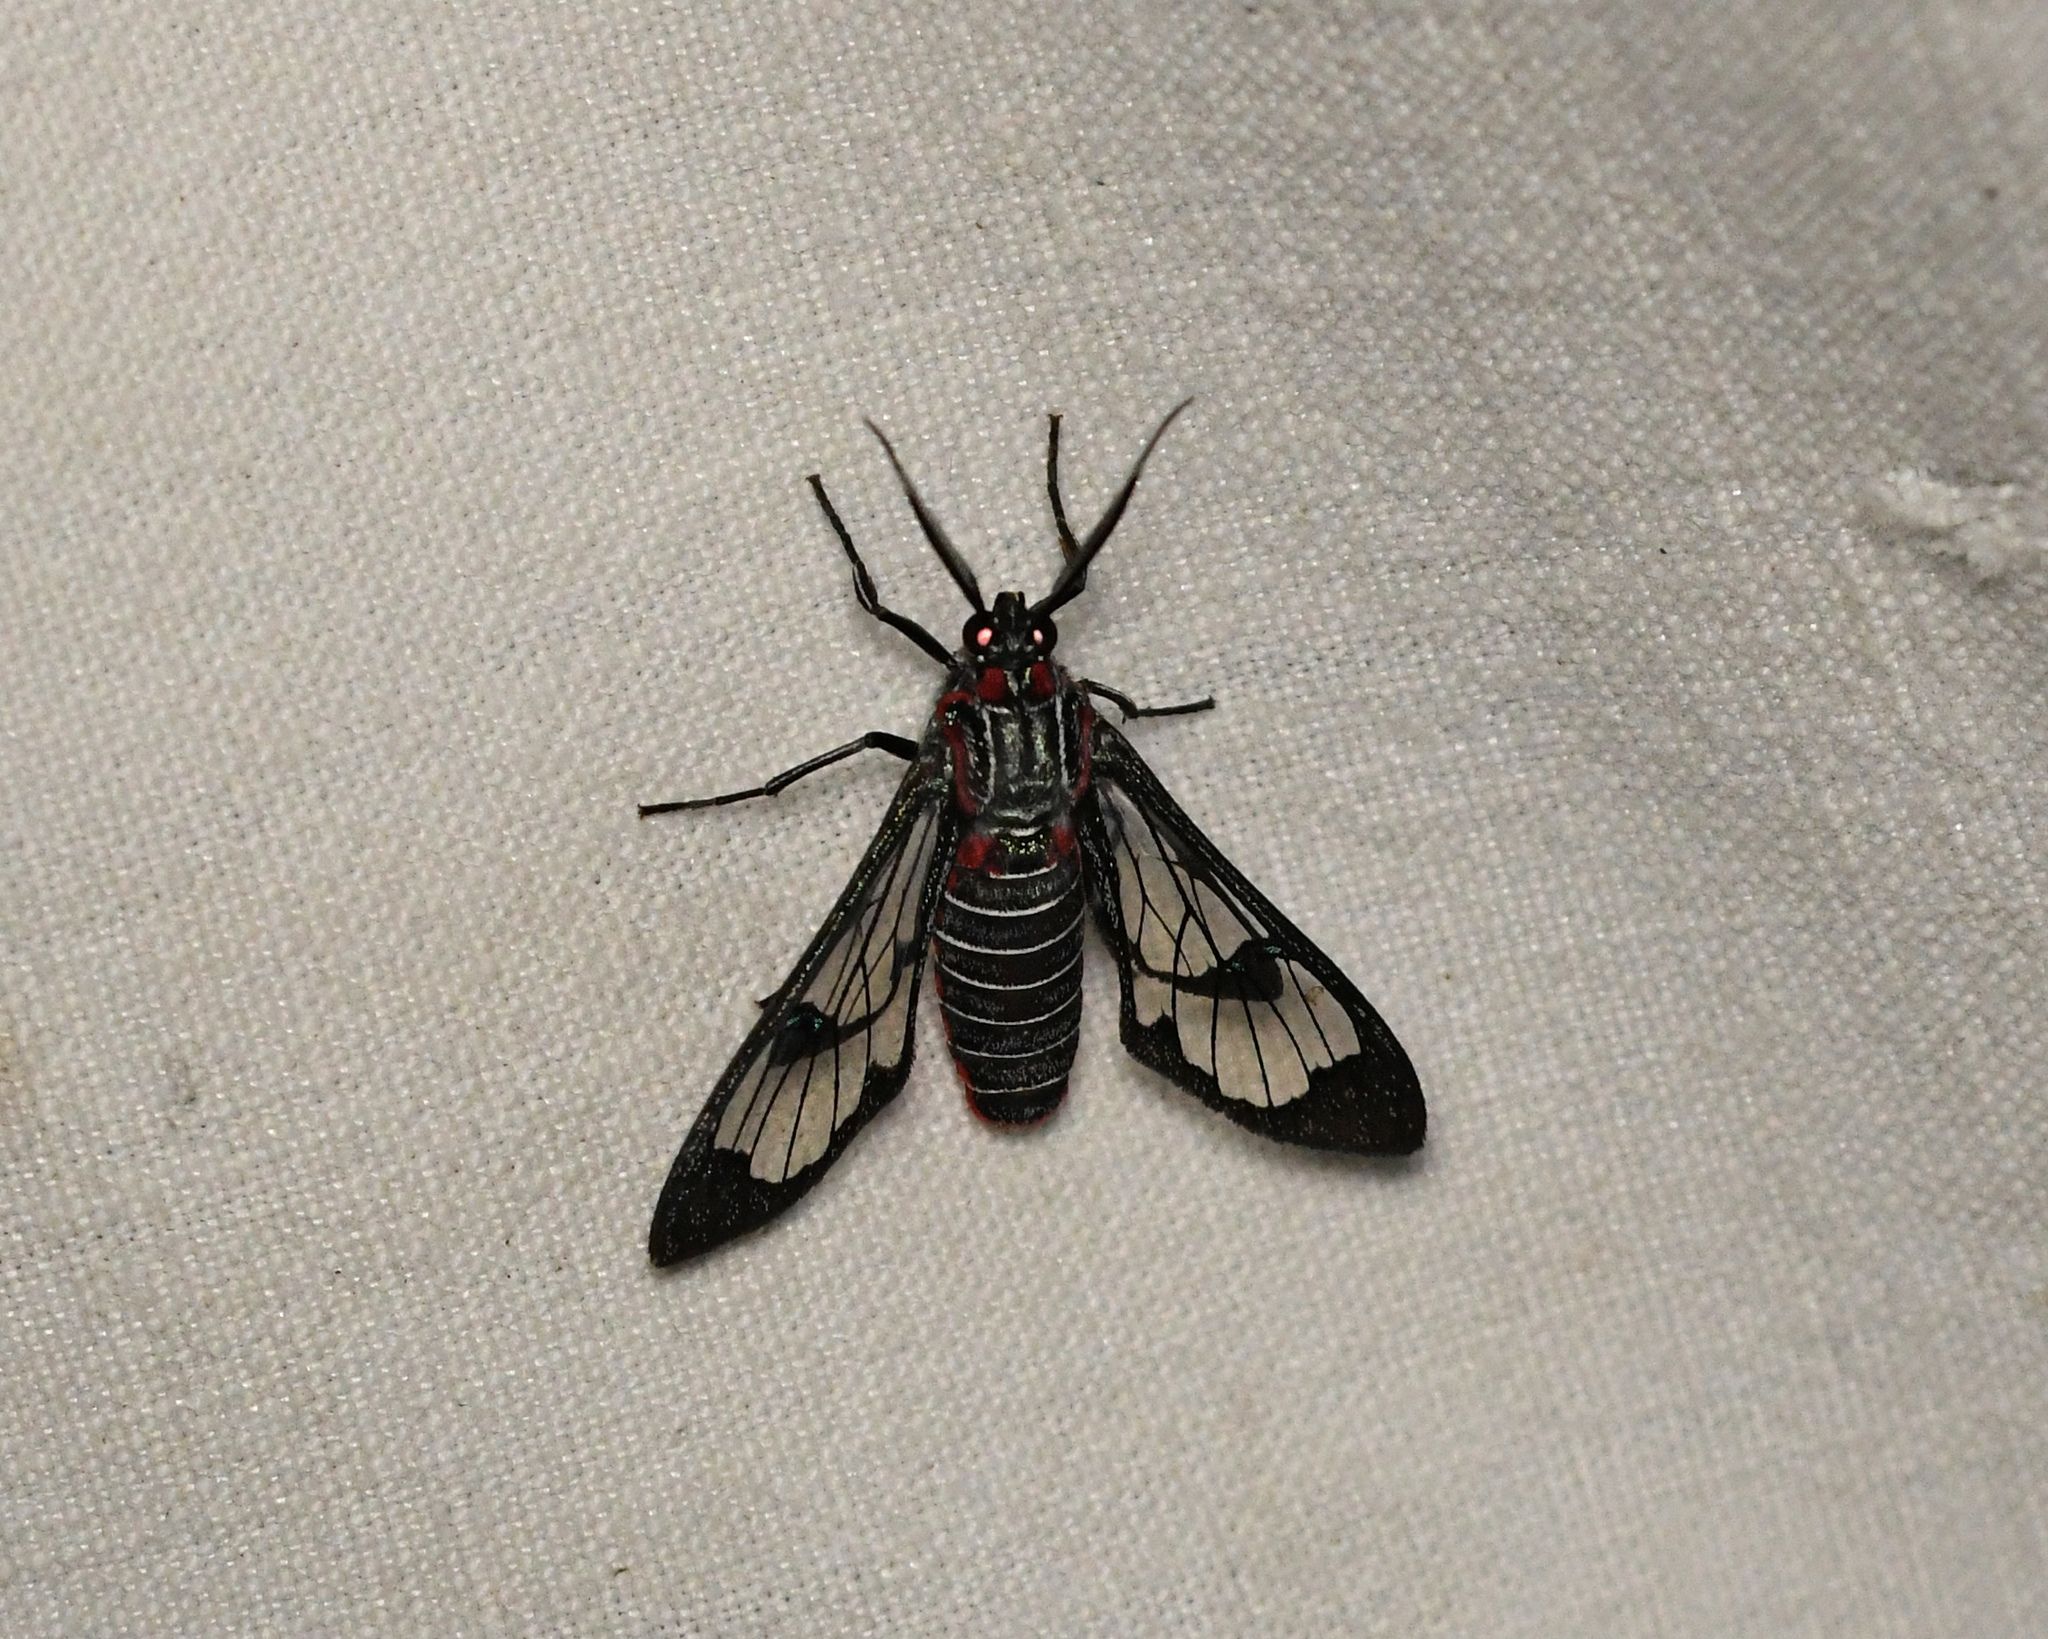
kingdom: Animalia
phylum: Arthropoda
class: Insecta
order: Lepidoptera
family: Erebidae
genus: Eunomia
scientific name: Eunomia colombina
